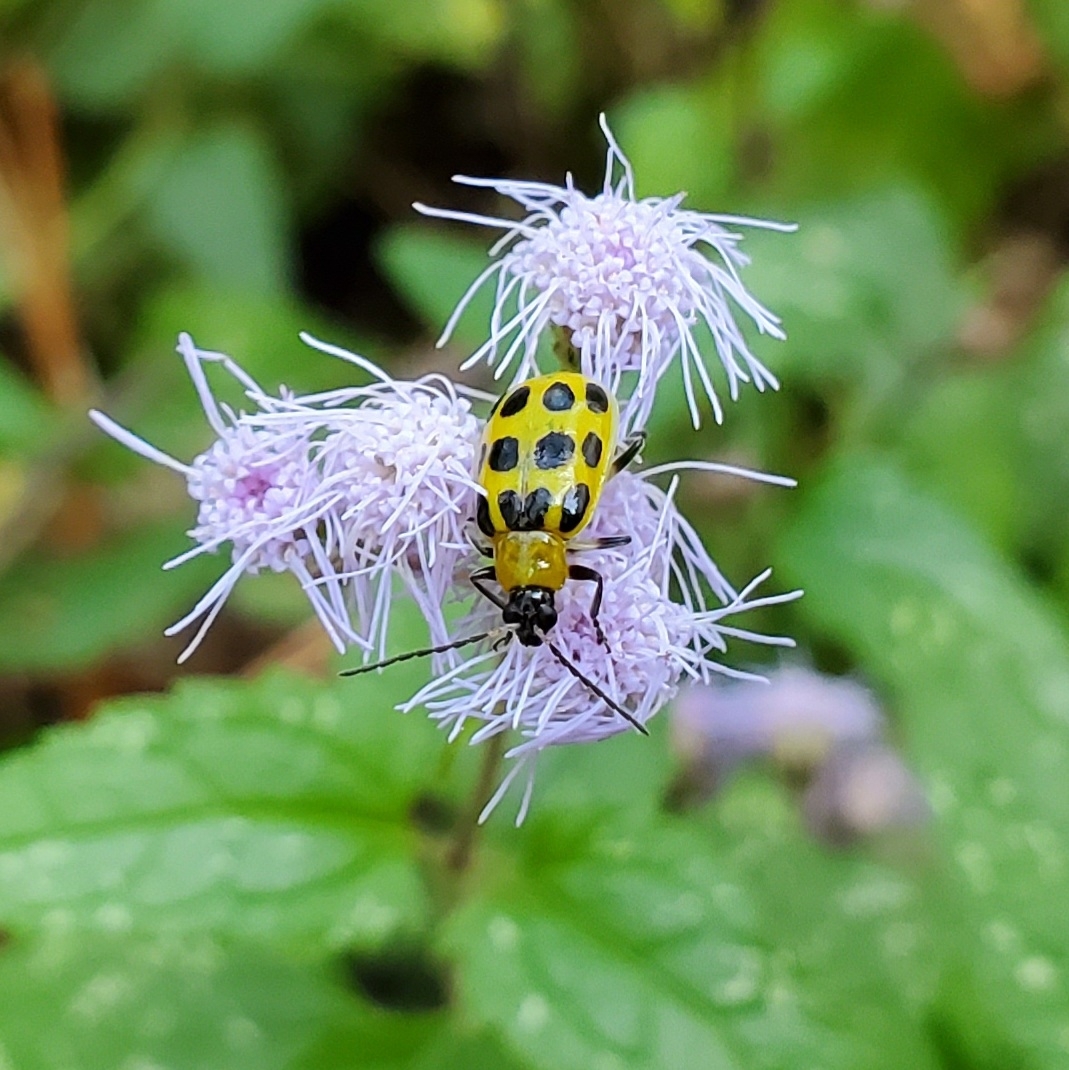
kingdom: Animalia
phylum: Arthropoda
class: Insecta
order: Coleoptera
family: Chrysomelidae
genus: Diabrotica
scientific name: Diabrotica undecimpunctata
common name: Spotted cucumber beetle
